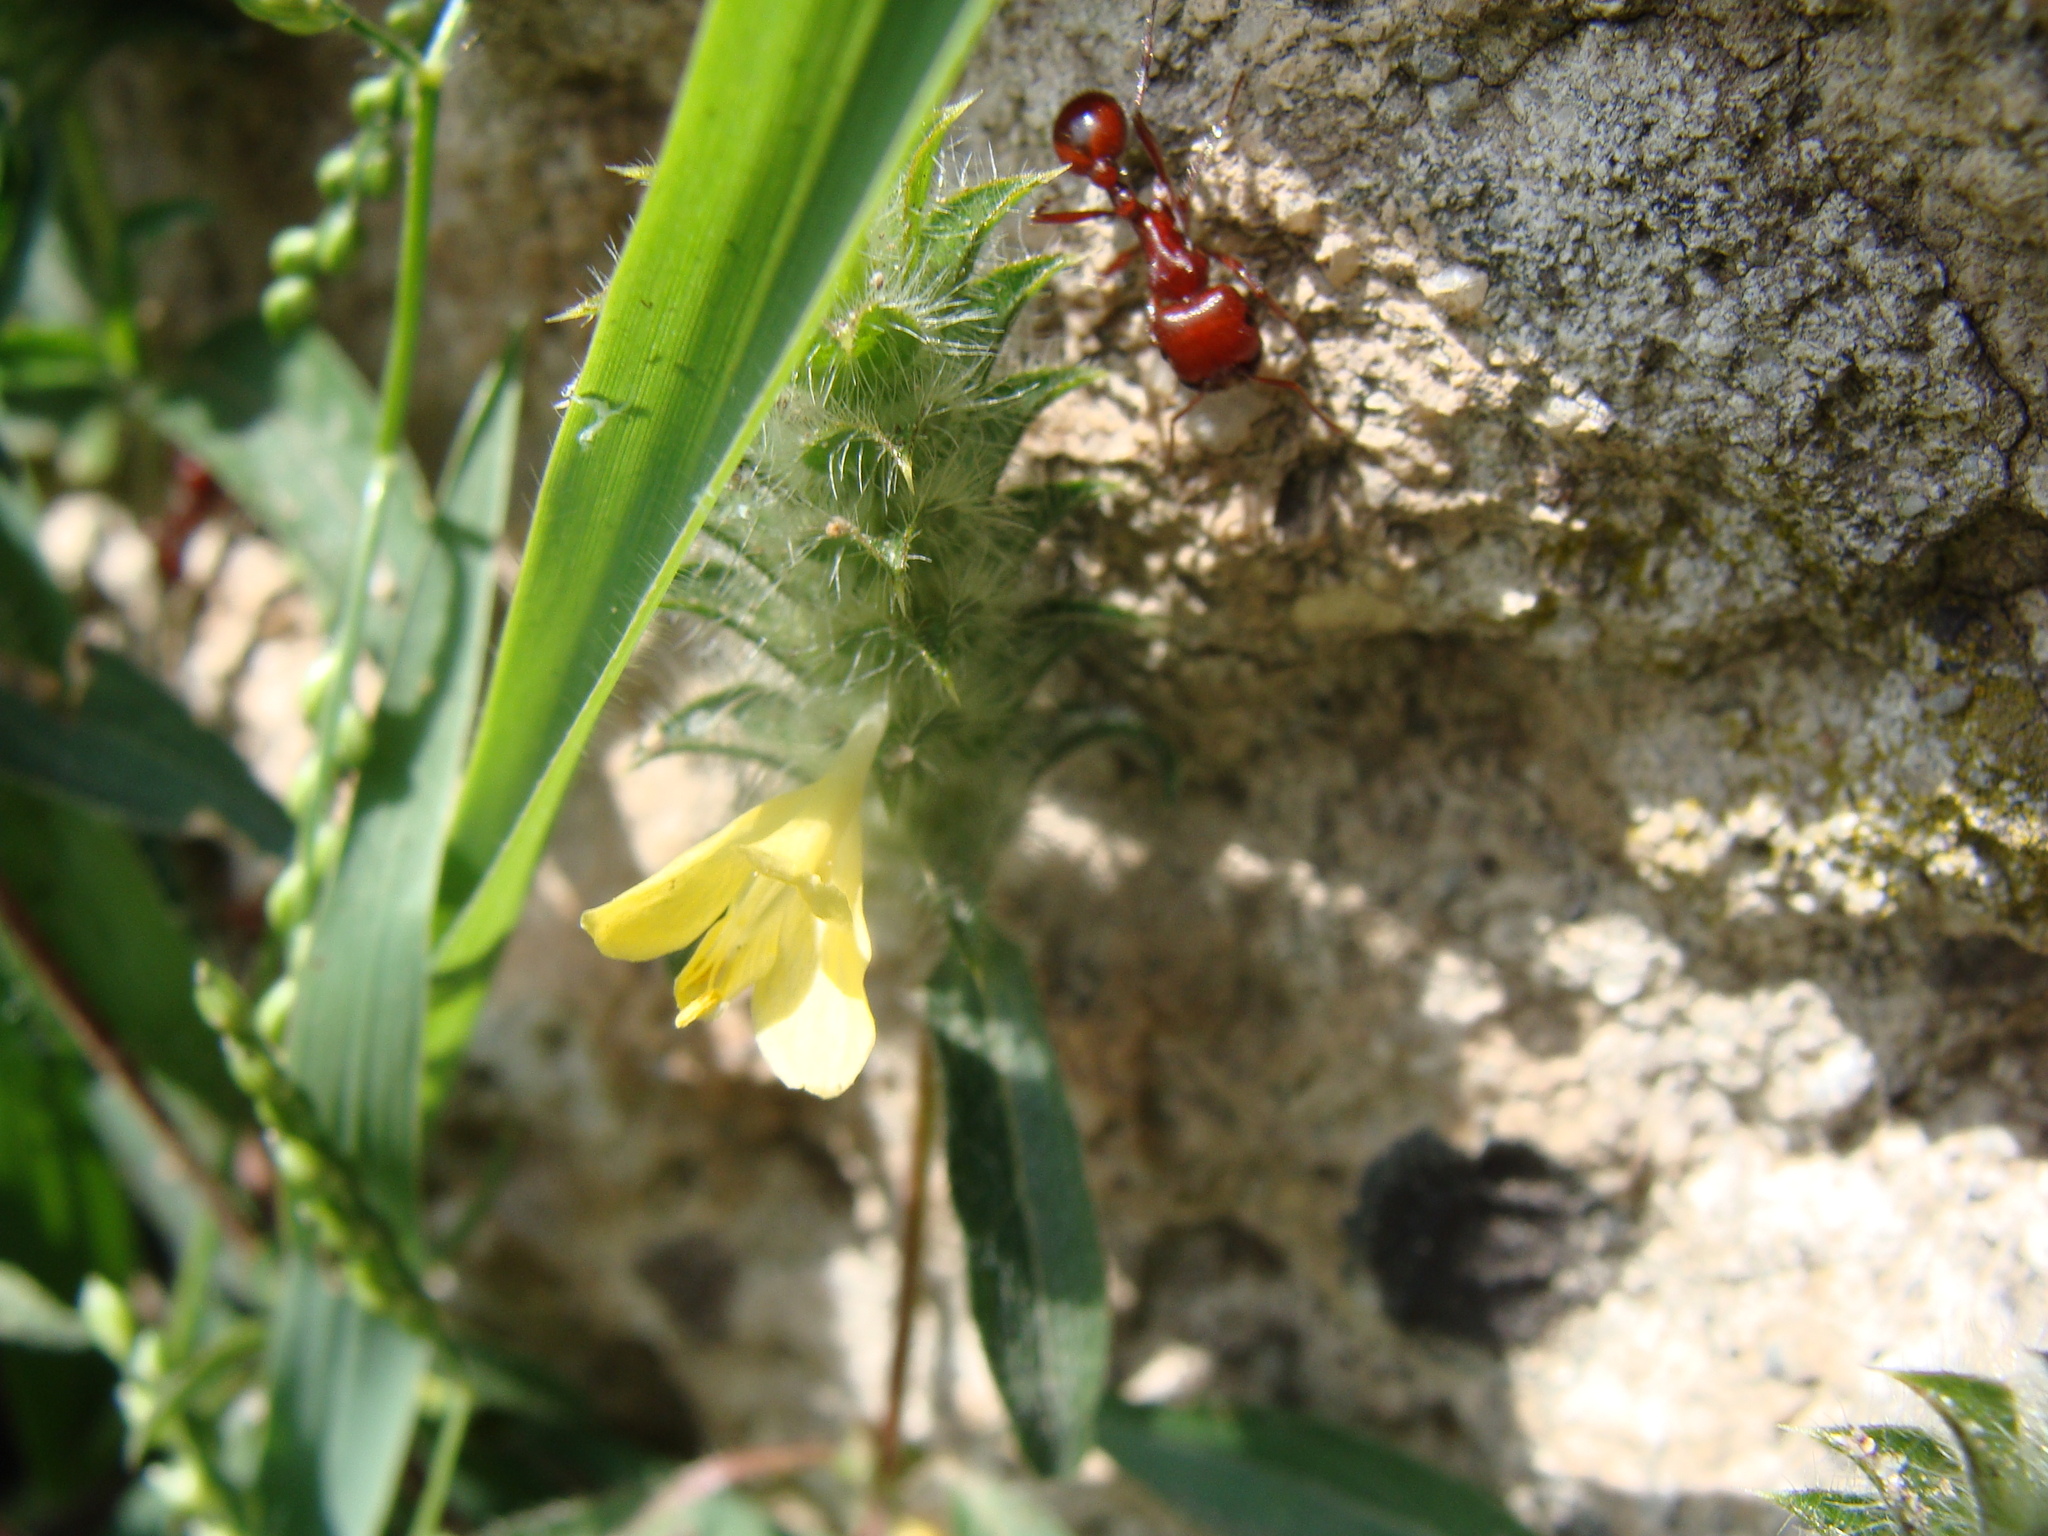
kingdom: Plantae
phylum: Tracheophyta
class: Magnoliopsida
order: Lamiales
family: Acanthaceae
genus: Tetramerium
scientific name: Tetramerium nervosum
